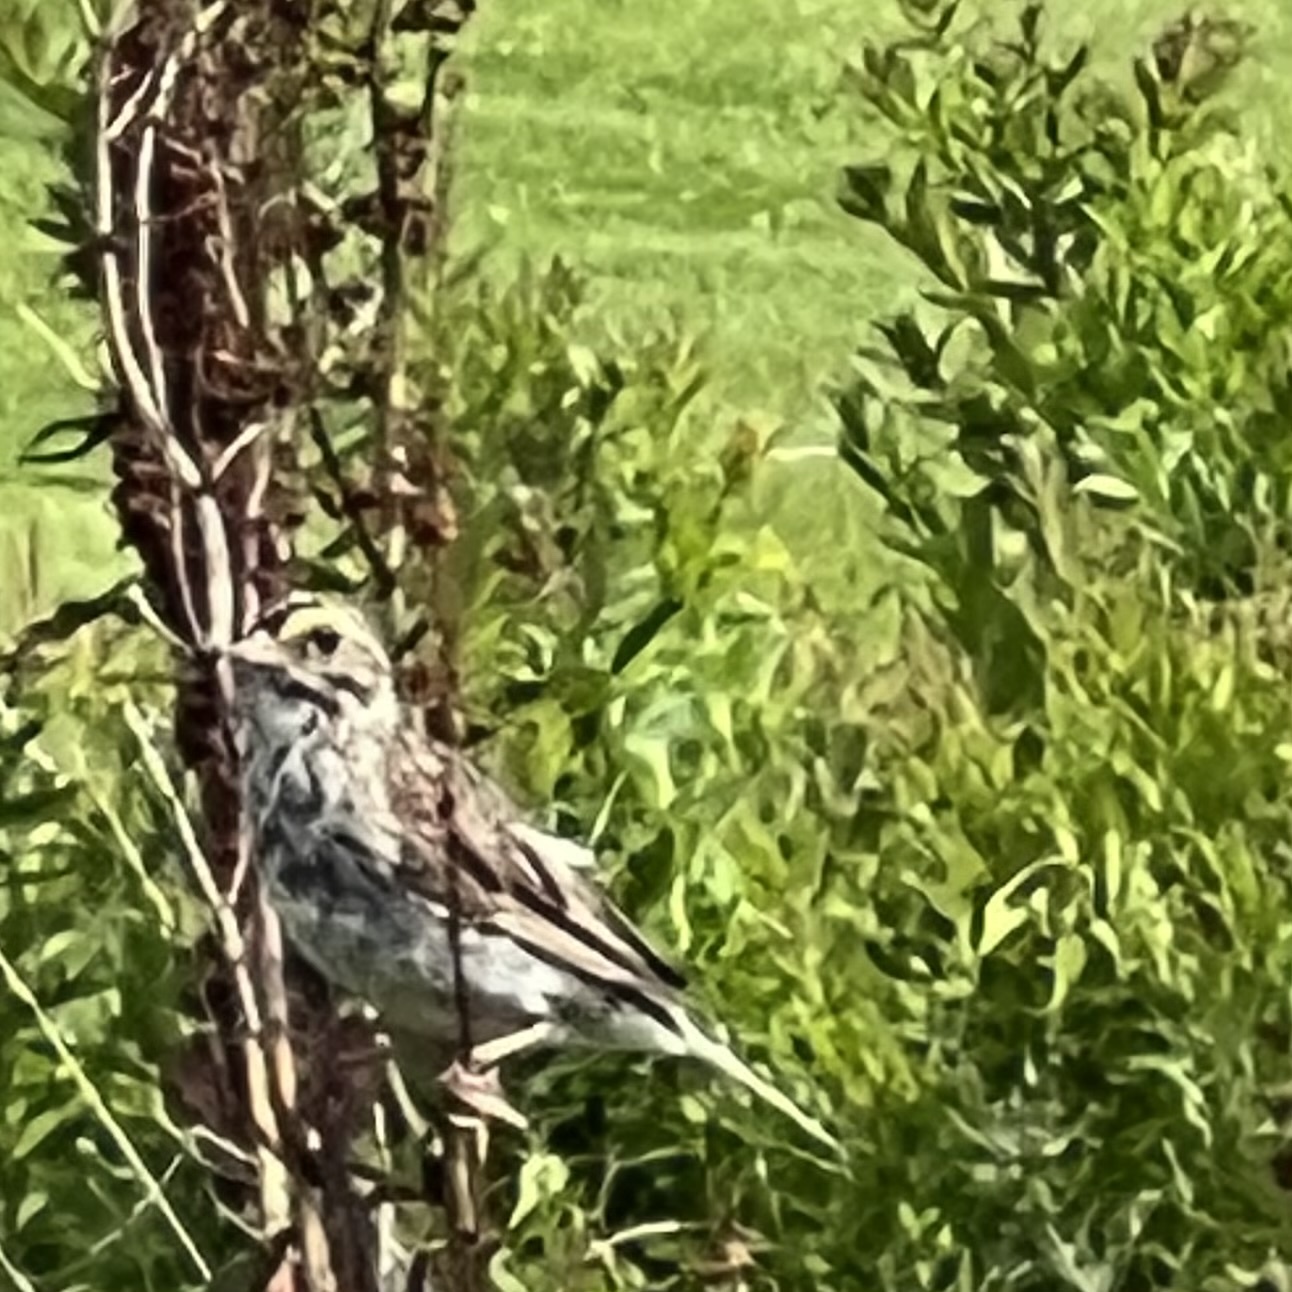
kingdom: Animalia
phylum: Chordata
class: Aves
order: Passeriformes
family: Passerellidae
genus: Passerculus
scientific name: Passerculus sandwichensis
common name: Savannah sparrow
